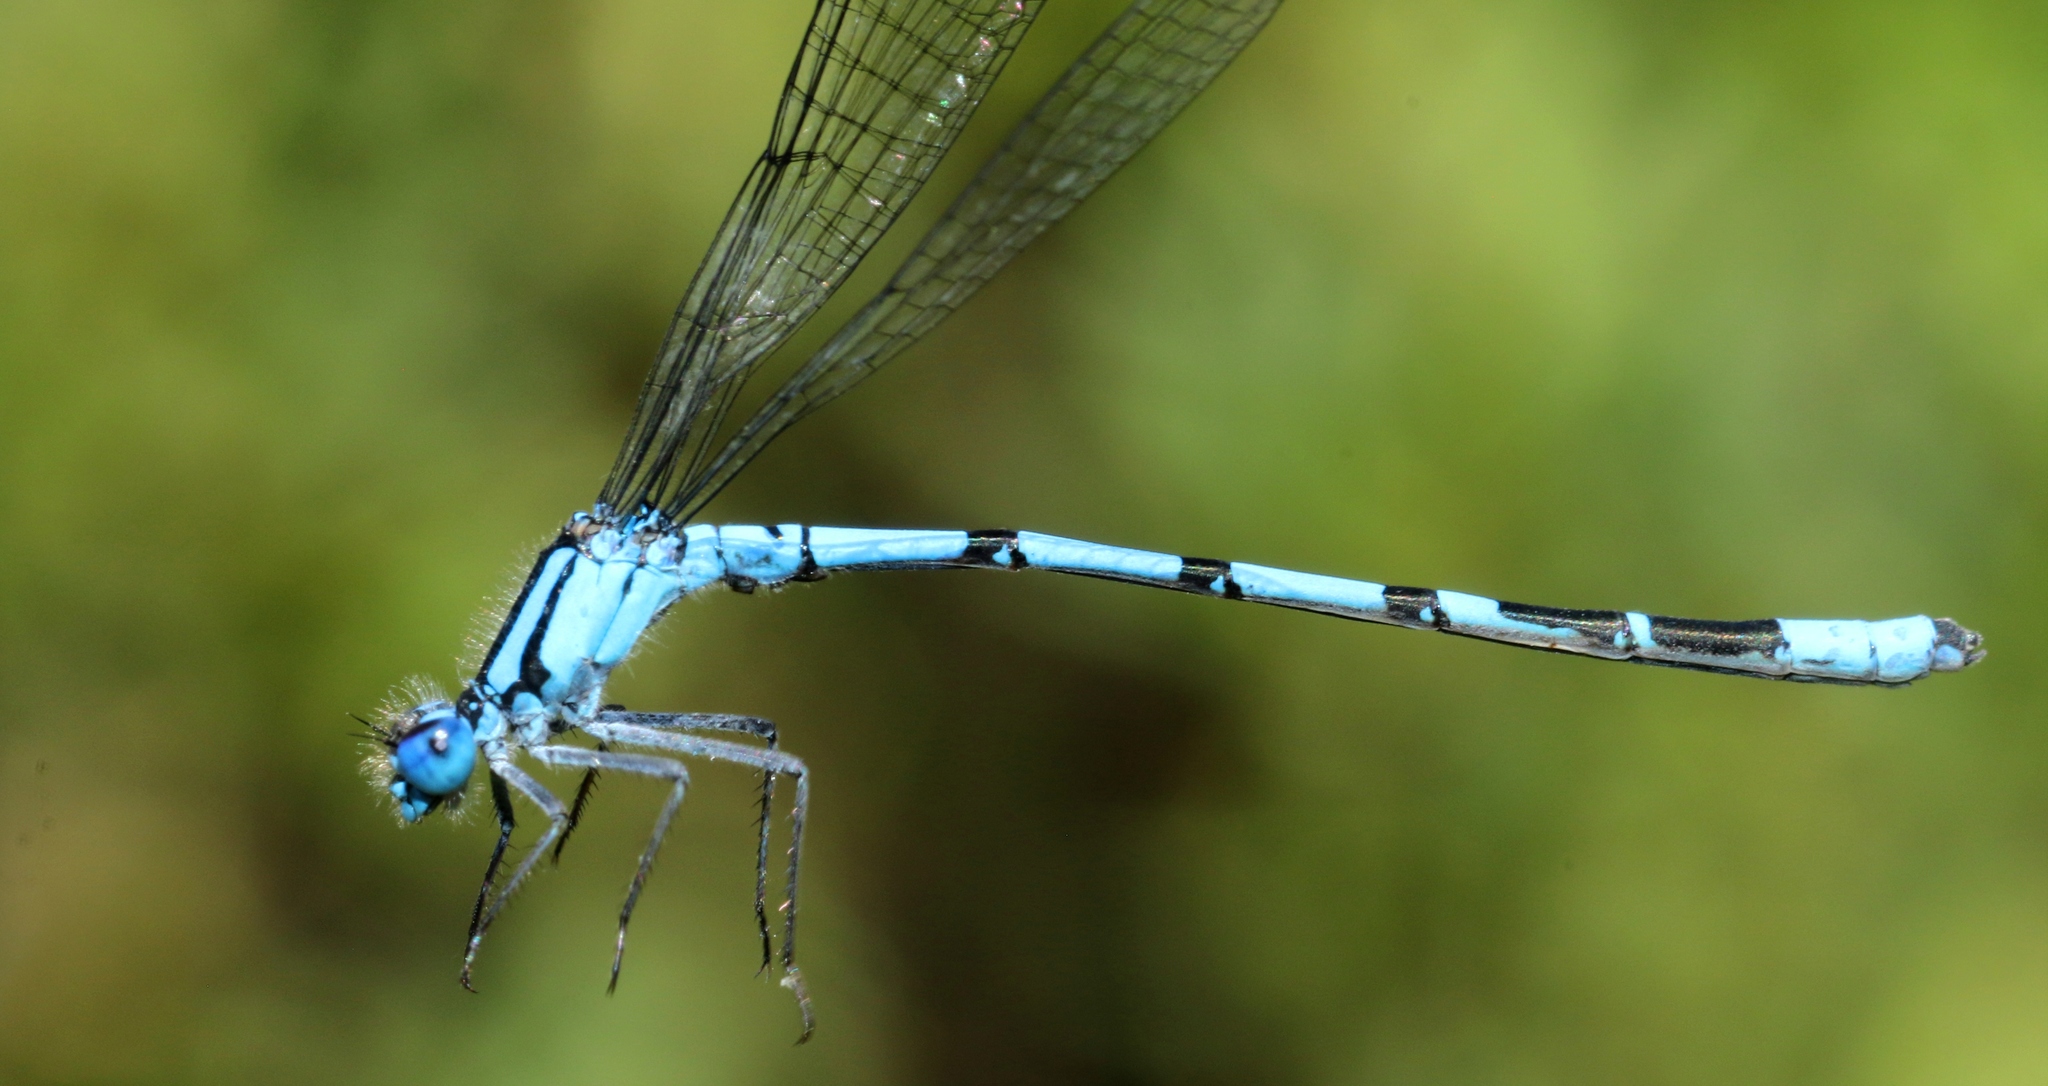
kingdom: Animalia
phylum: Arthropoda
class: Insecta
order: Odonata
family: Coenagrionidae
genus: Enallagma
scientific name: Enallagma boreale
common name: Boreal bluet
